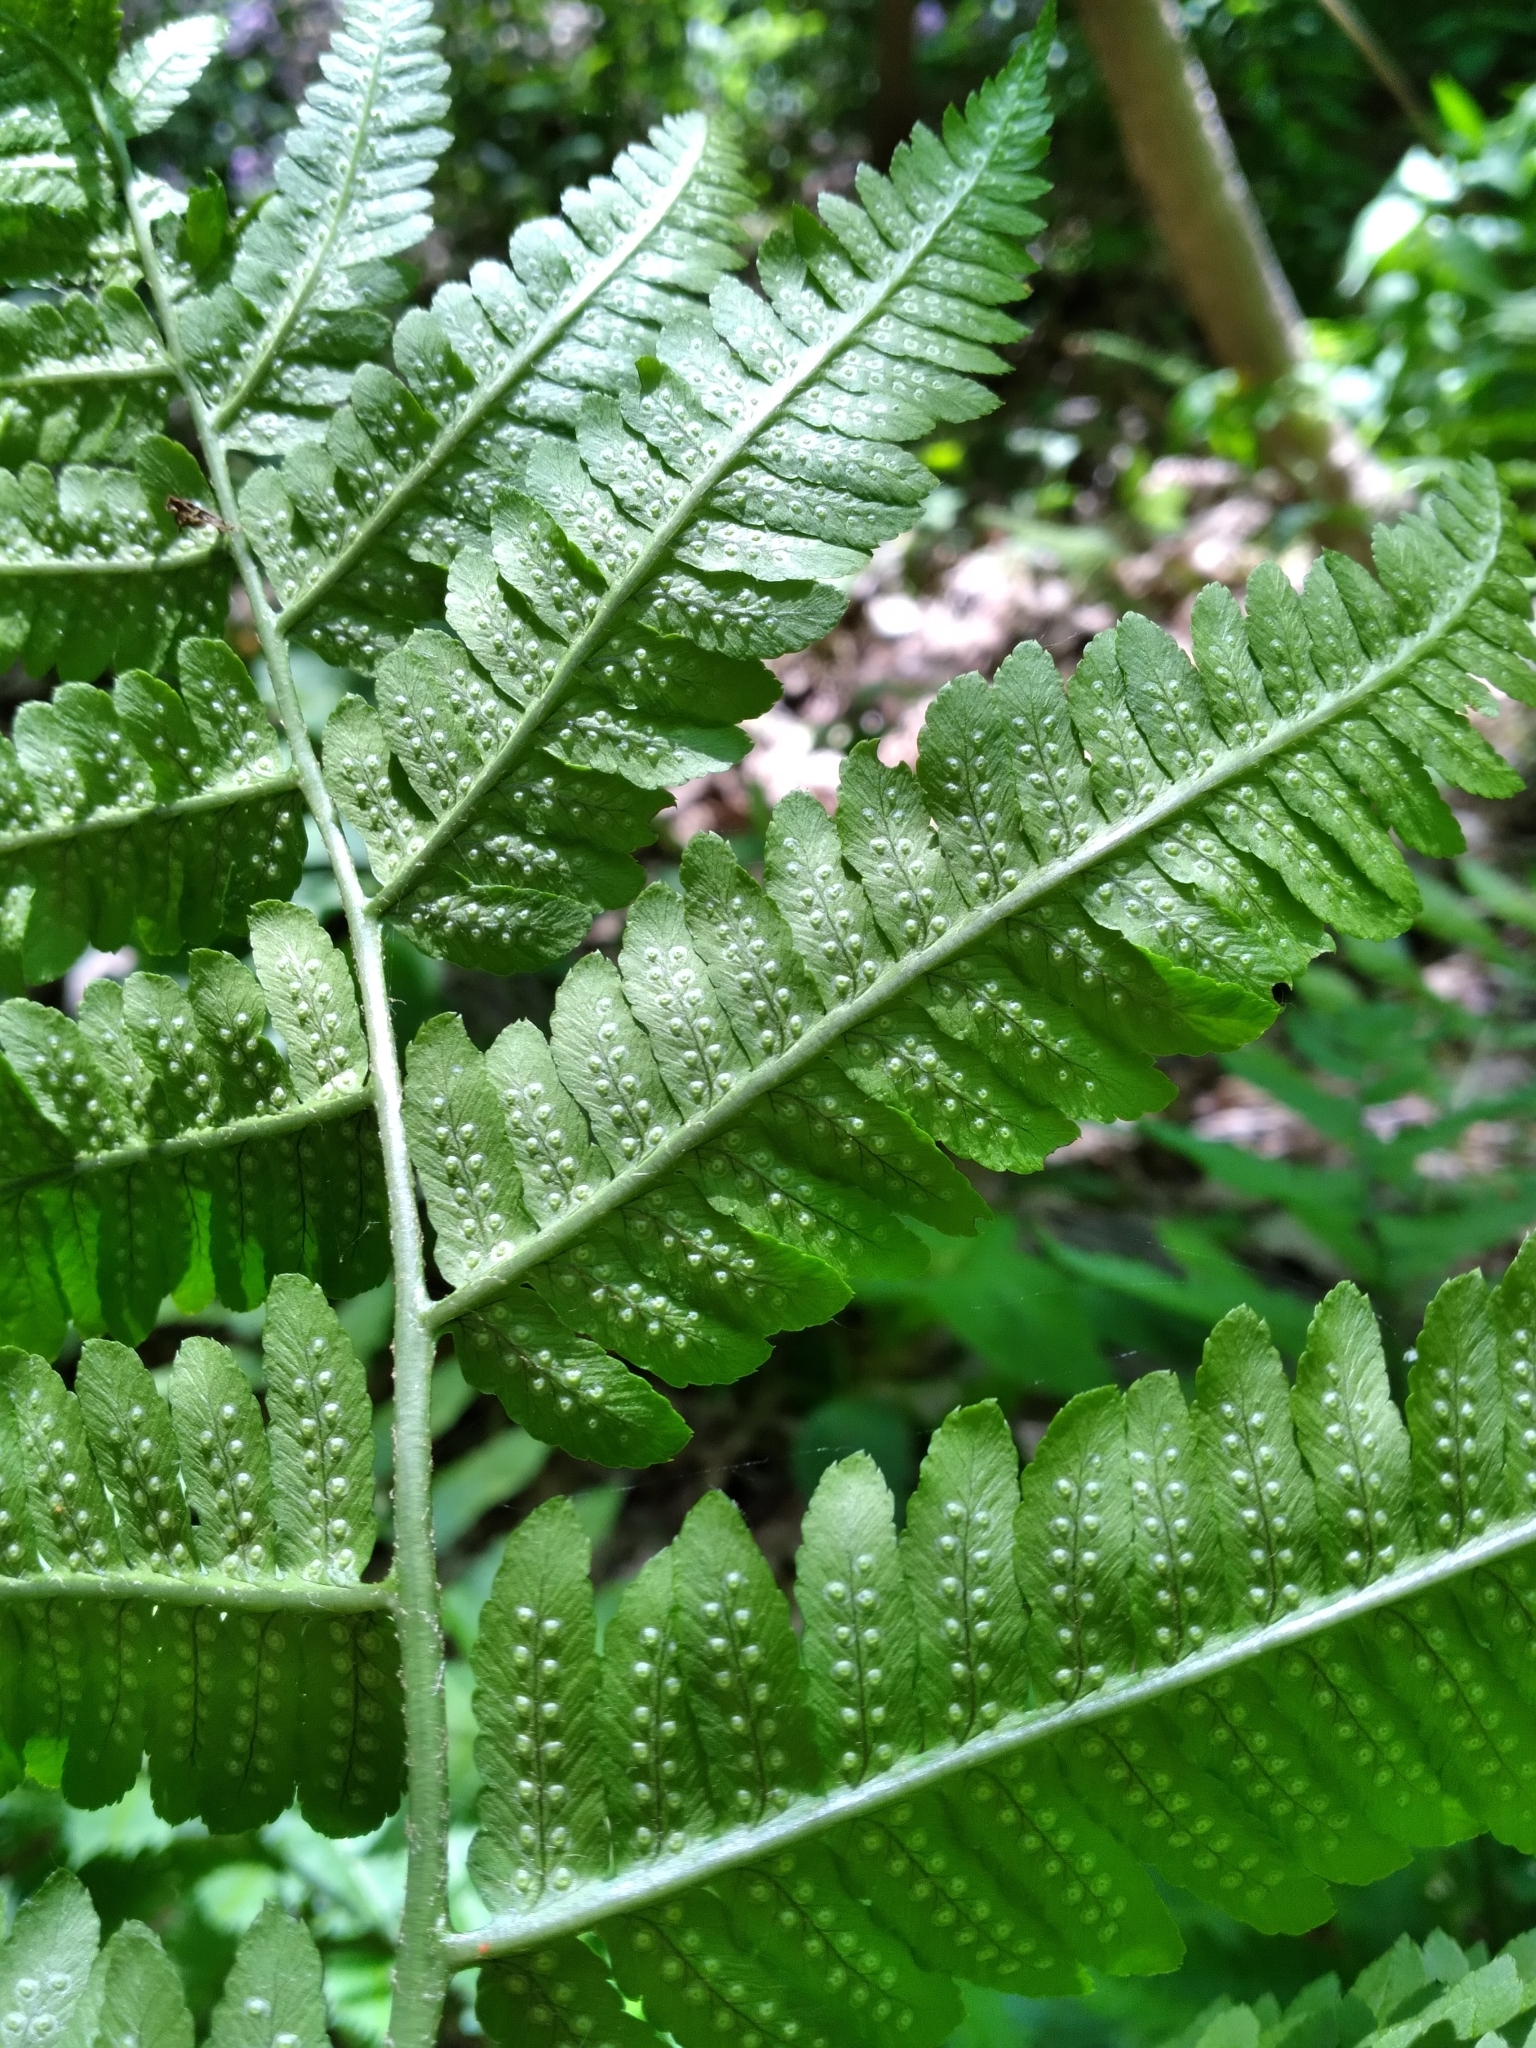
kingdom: Plantae
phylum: Tracheophyta
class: Polypodiopsida
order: Polypodiales
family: Dryopteridaceae
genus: Dryopteris
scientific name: Dryopteris goldieana
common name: Goldie's fern
